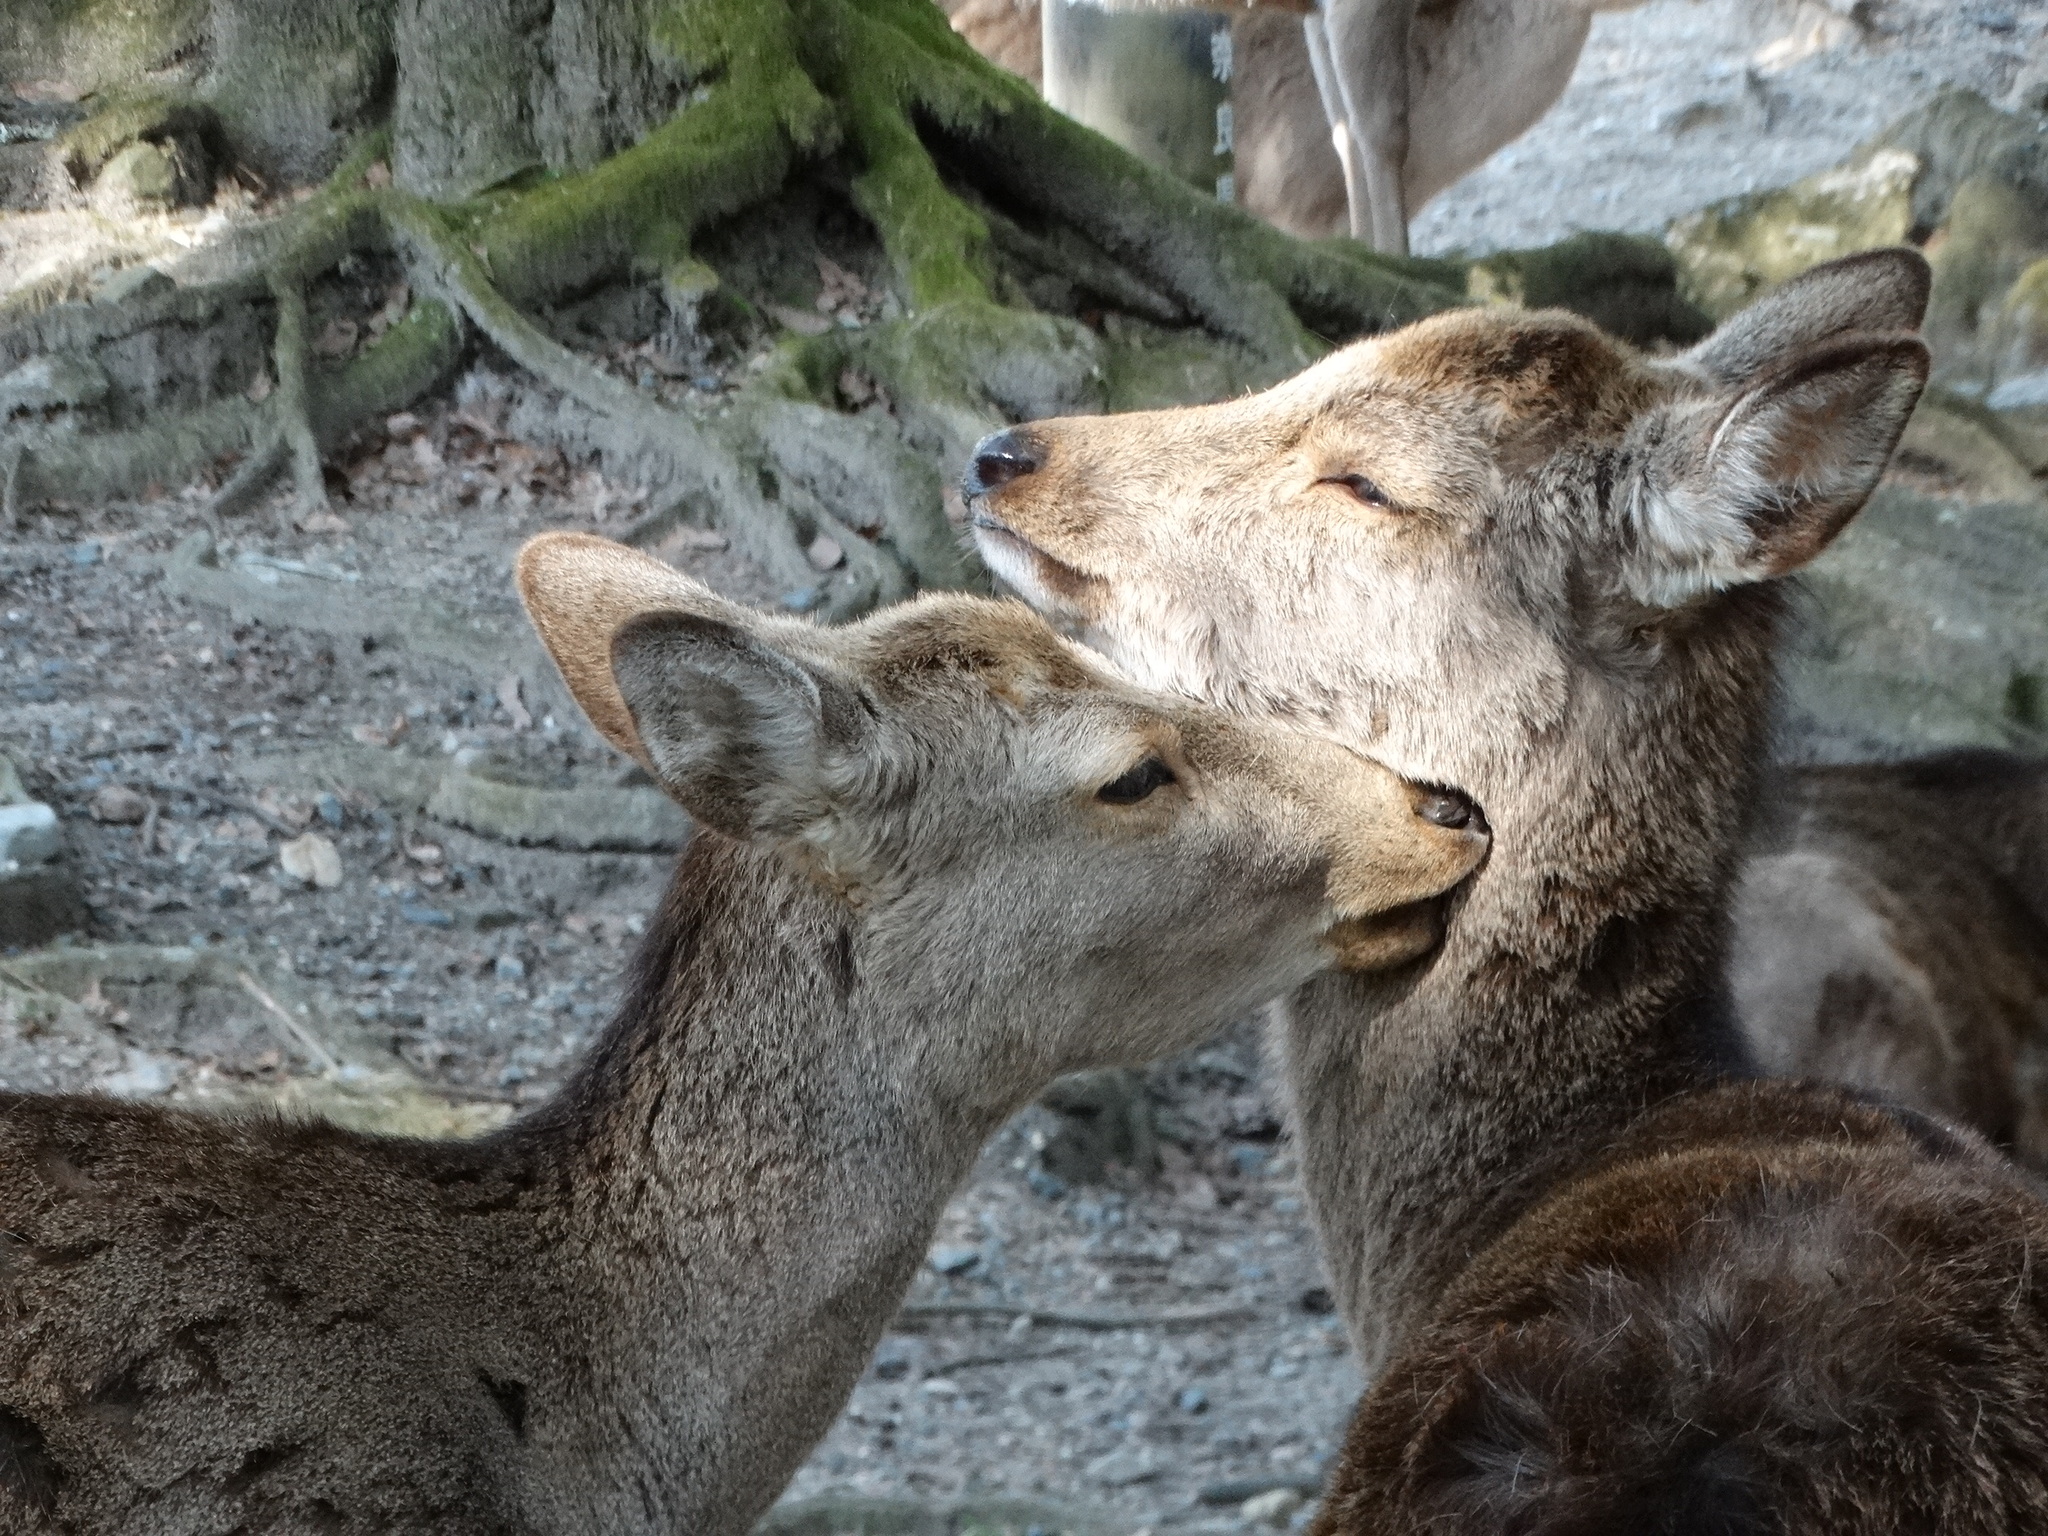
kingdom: Animalia
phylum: Chordata
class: Mammalia
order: Artiodactyla
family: Cervidae
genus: Cervus
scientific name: Cervus nippon
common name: Sika deer
